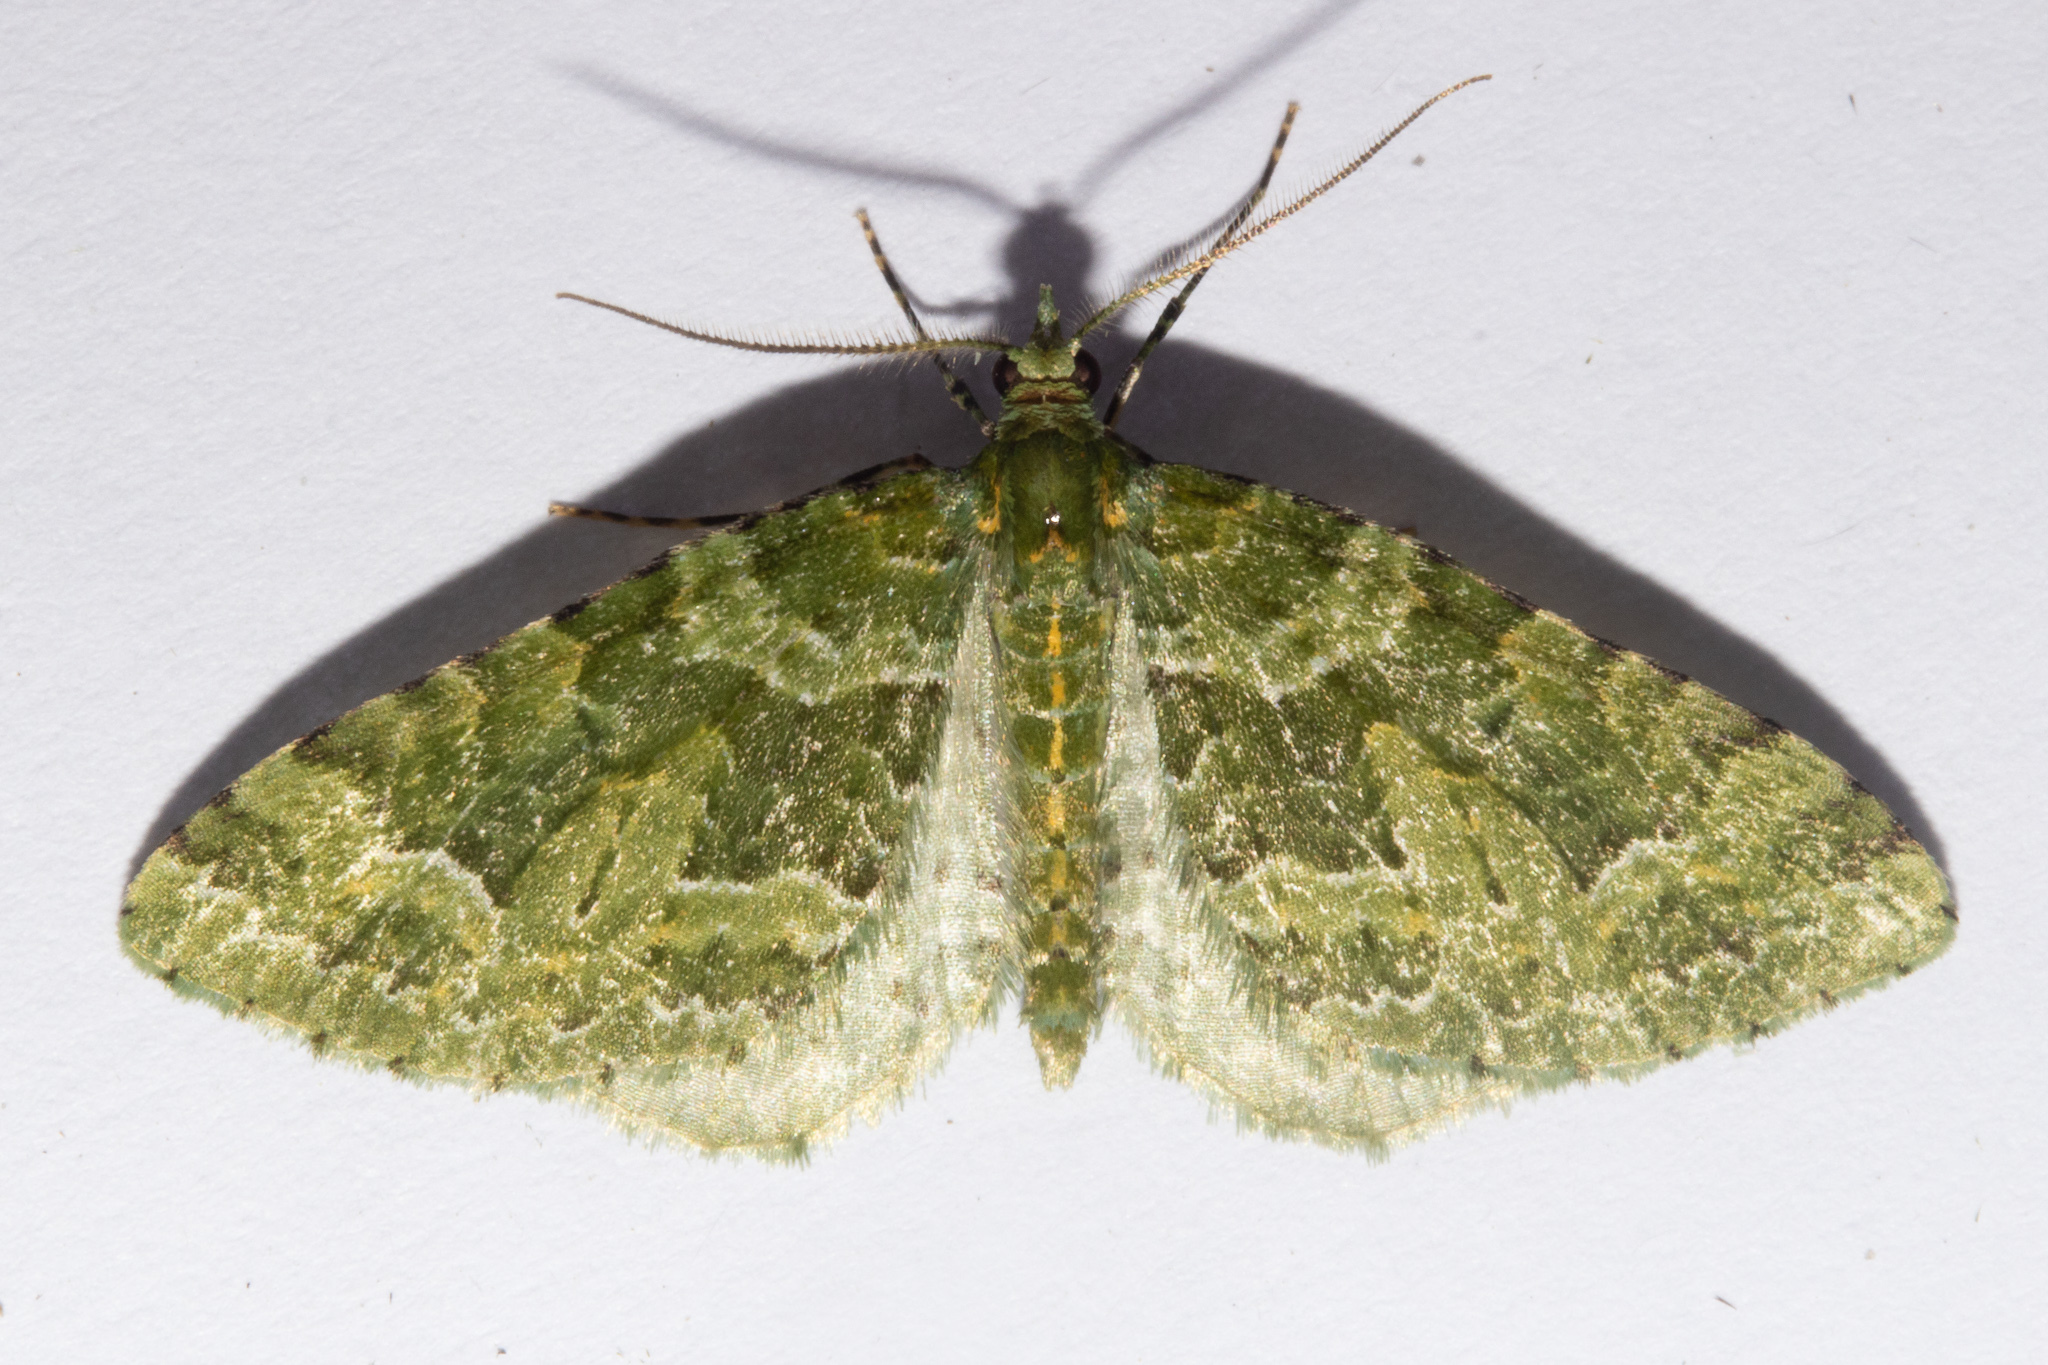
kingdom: Animalia
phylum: Arthropoda
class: Insecta
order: Lepidoptera
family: Geometridae
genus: Pasiphila
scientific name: Pasiphila melochlora
